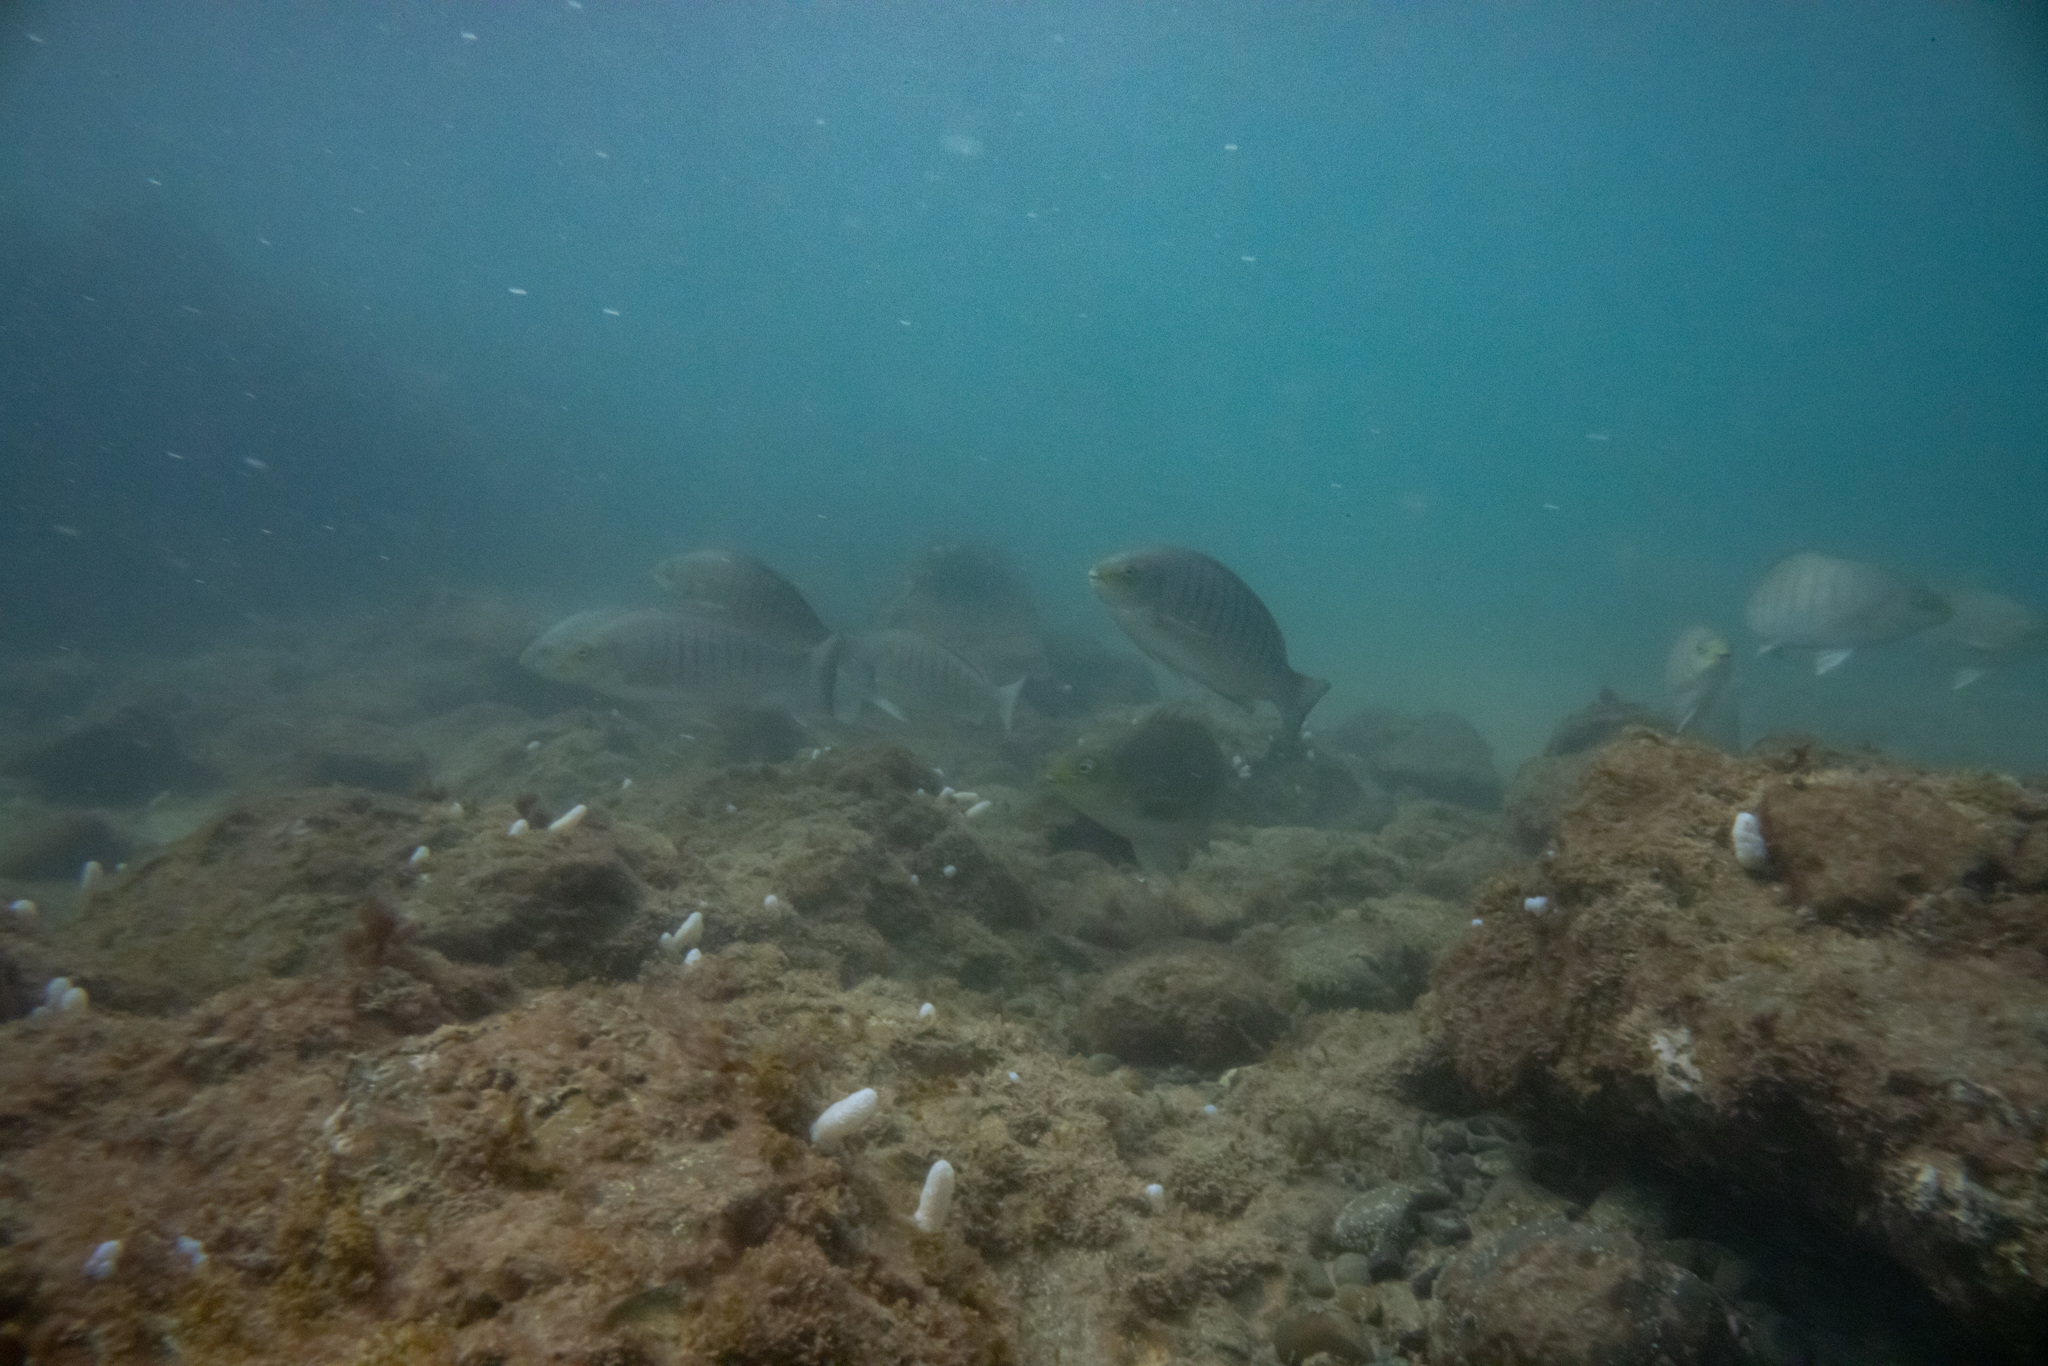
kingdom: Animalia
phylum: Chordata
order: Perciformes
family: Kyphosidae
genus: Girella
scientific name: Girella tricuspidata
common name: Parore
